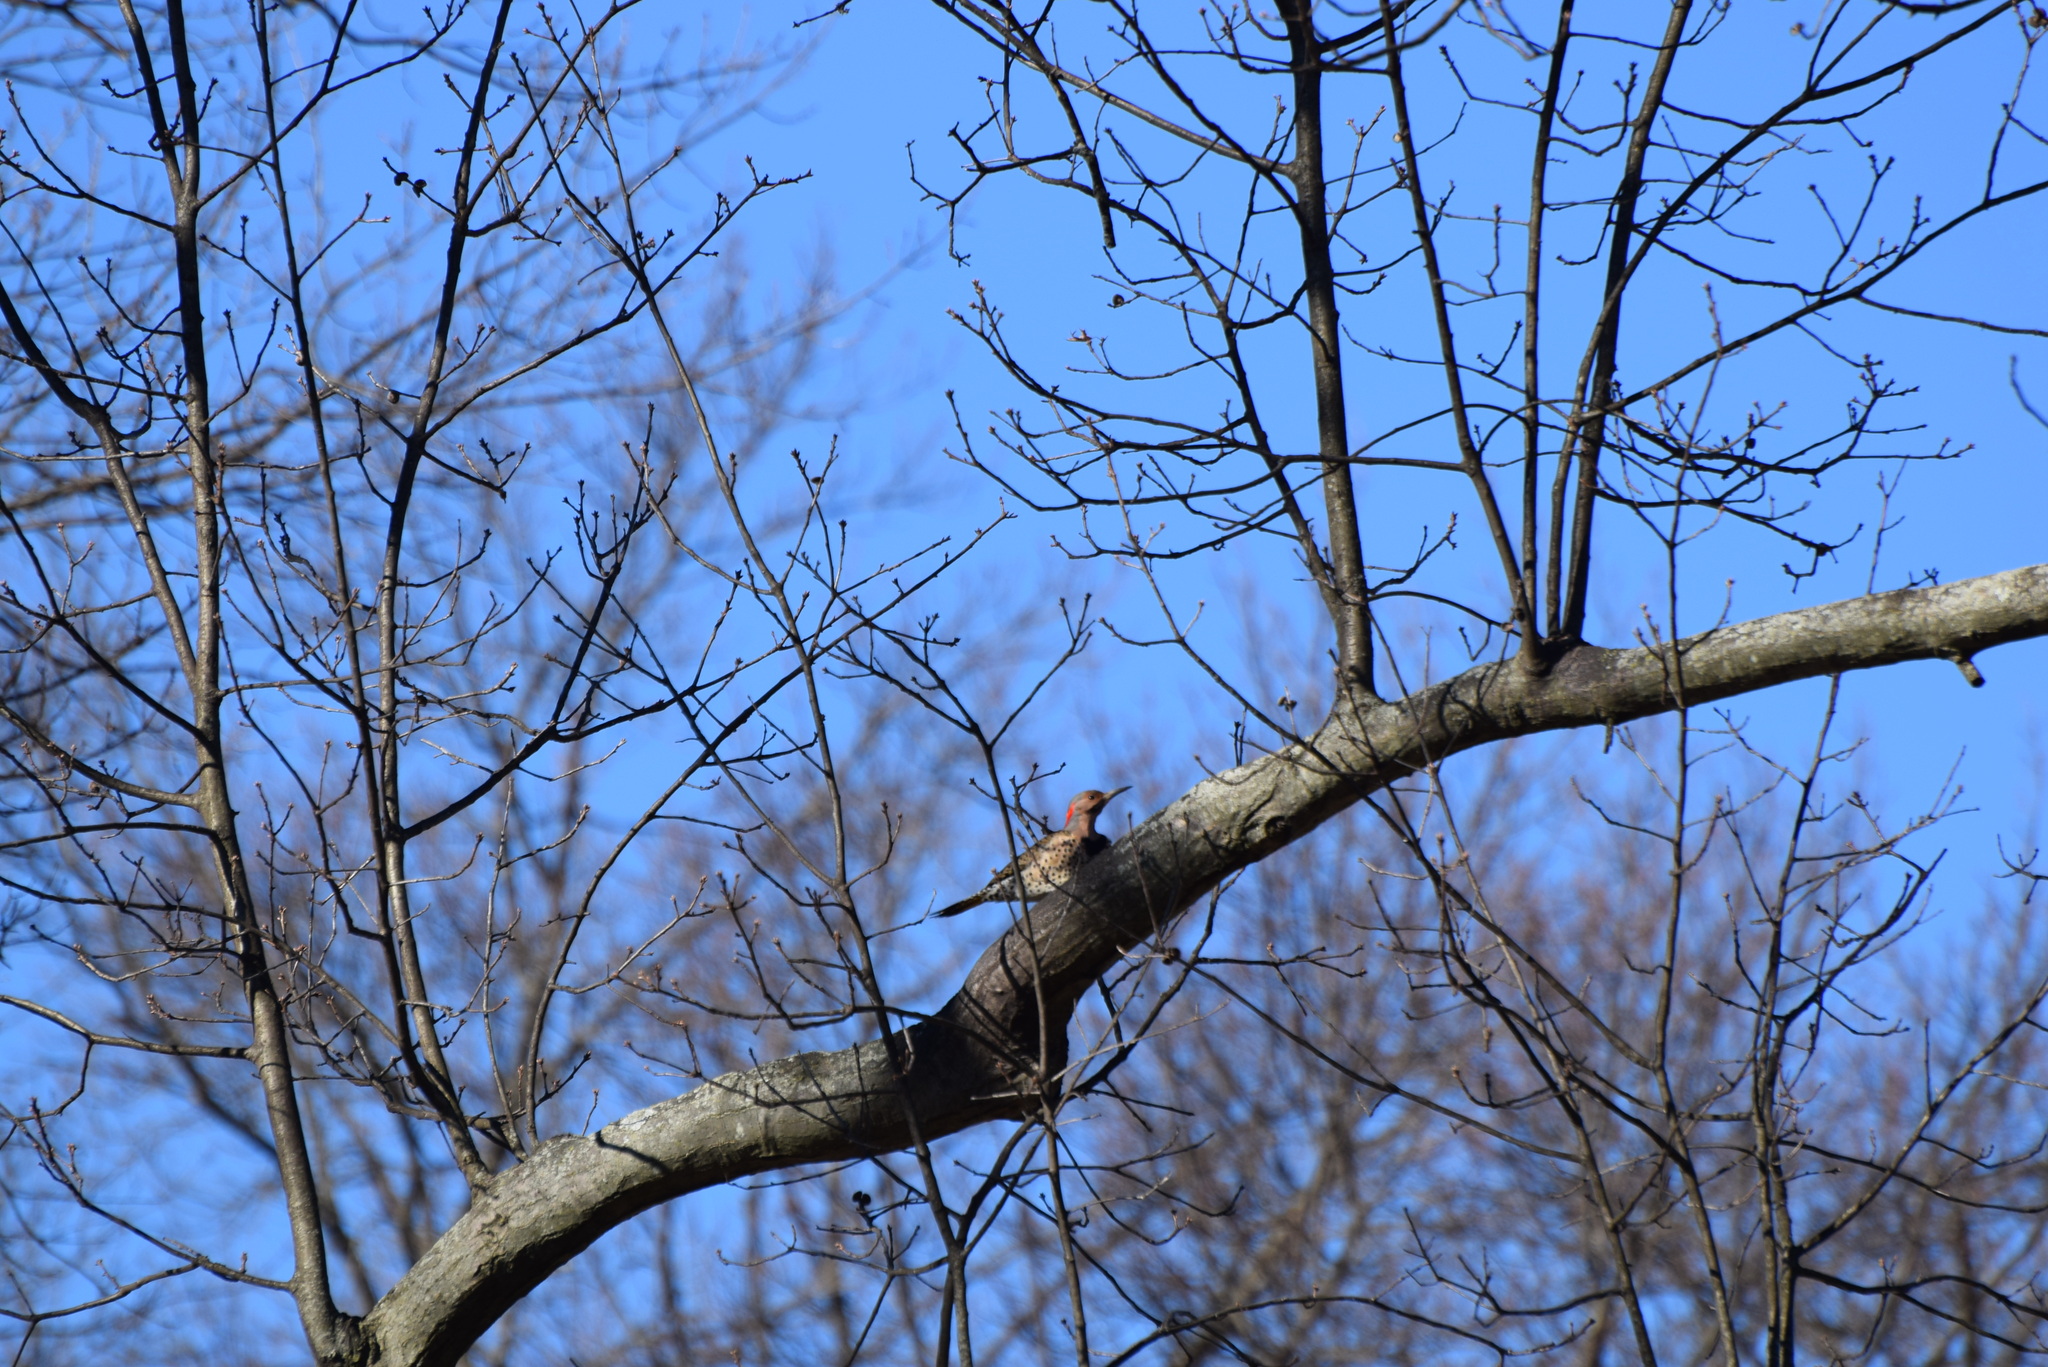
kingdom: Animalia
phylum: Chordata
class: Aves
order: Piciformes
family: Picidae
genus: Colaptes
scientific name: Colaptes auratus
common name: Northern flicker
